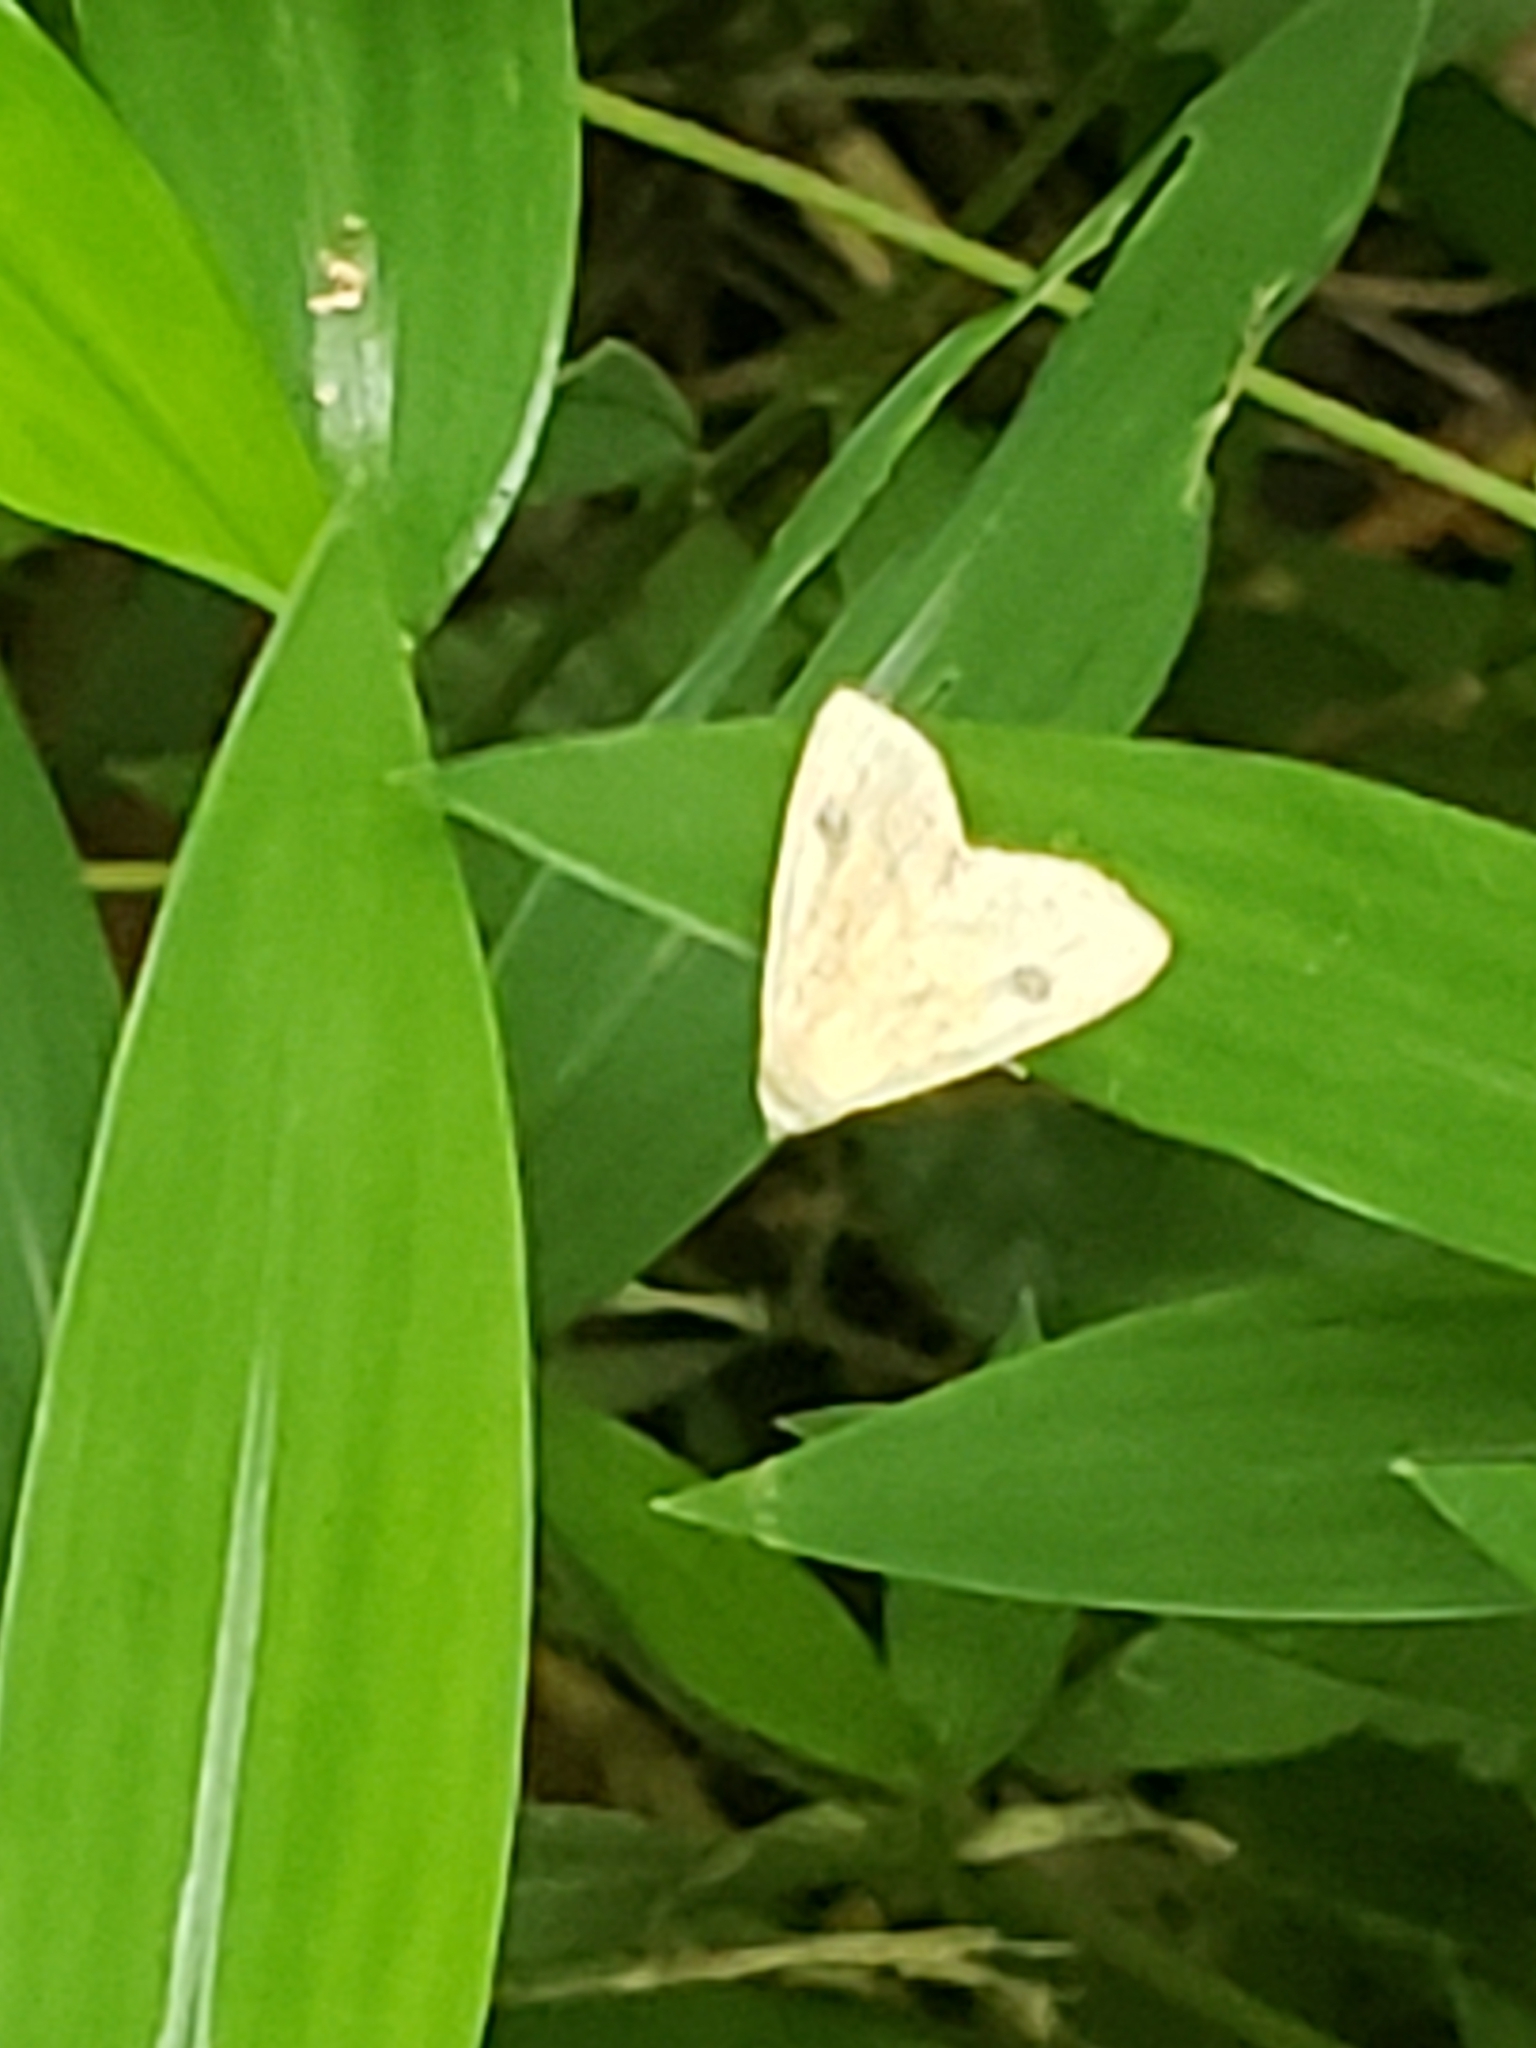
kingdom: Animalia
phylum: Arthropoda
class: Insecta
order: Lepidoptera
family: Erebidae
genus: Rivula
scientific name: Rivula propinqualis
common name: Spotted grass moth
